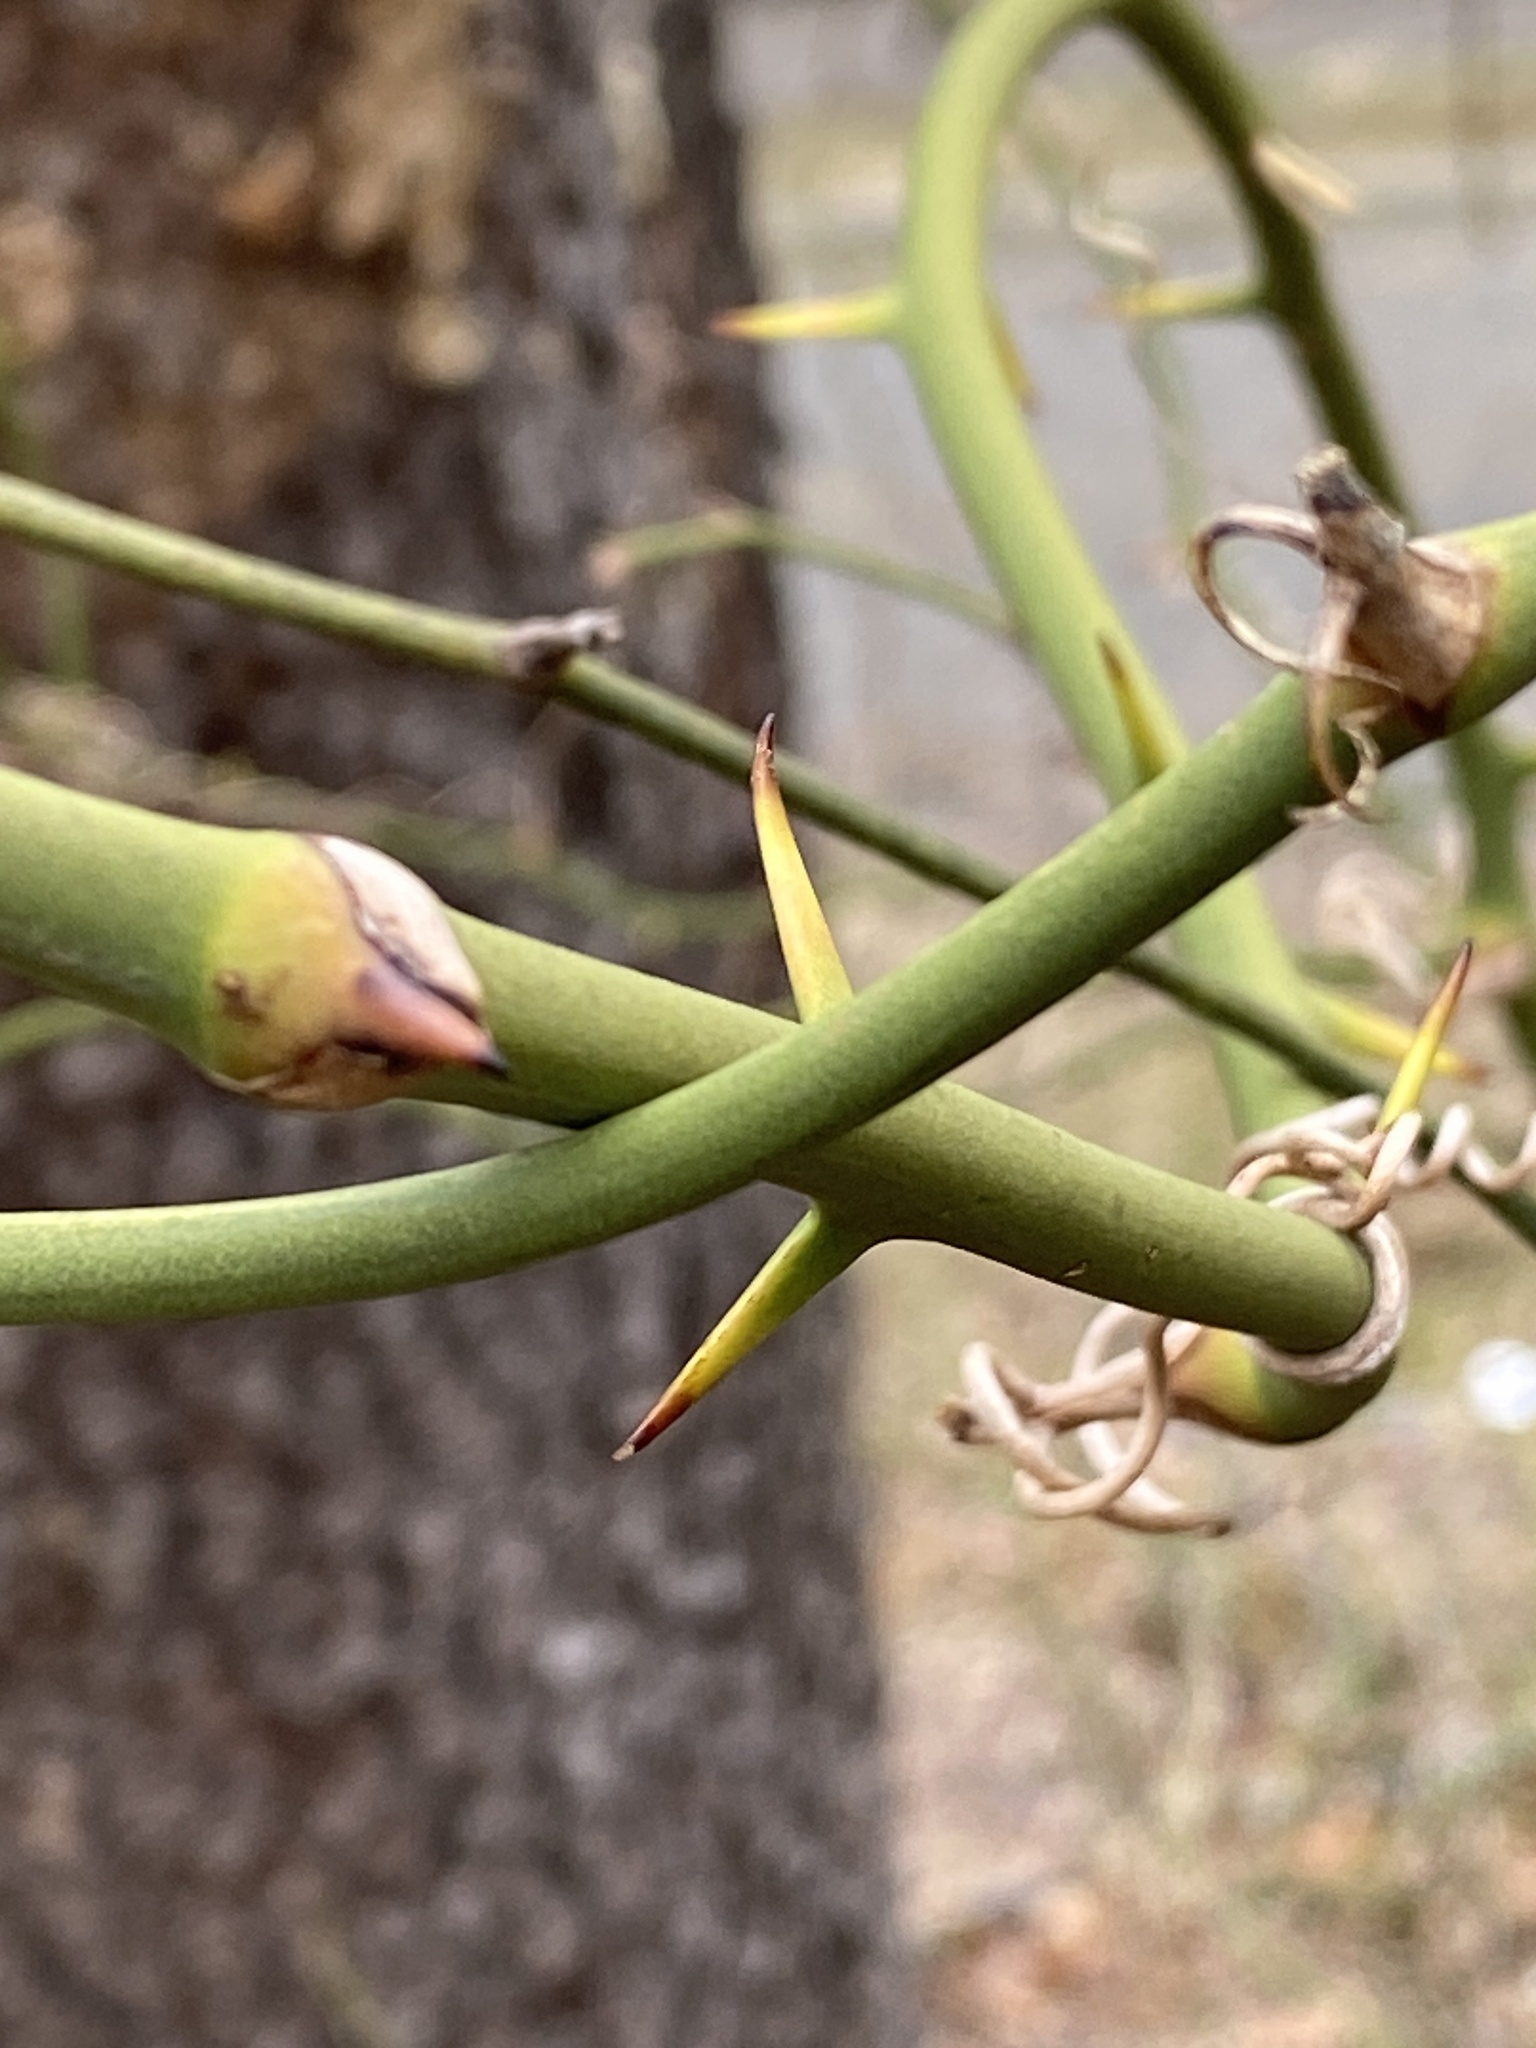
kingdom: Plantae
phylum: Tracheophyta
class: Liliopsida
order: Liliales
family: Smilacaceae
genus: Smilax
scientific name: Smilax rotundifolia
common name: Bullbriar
